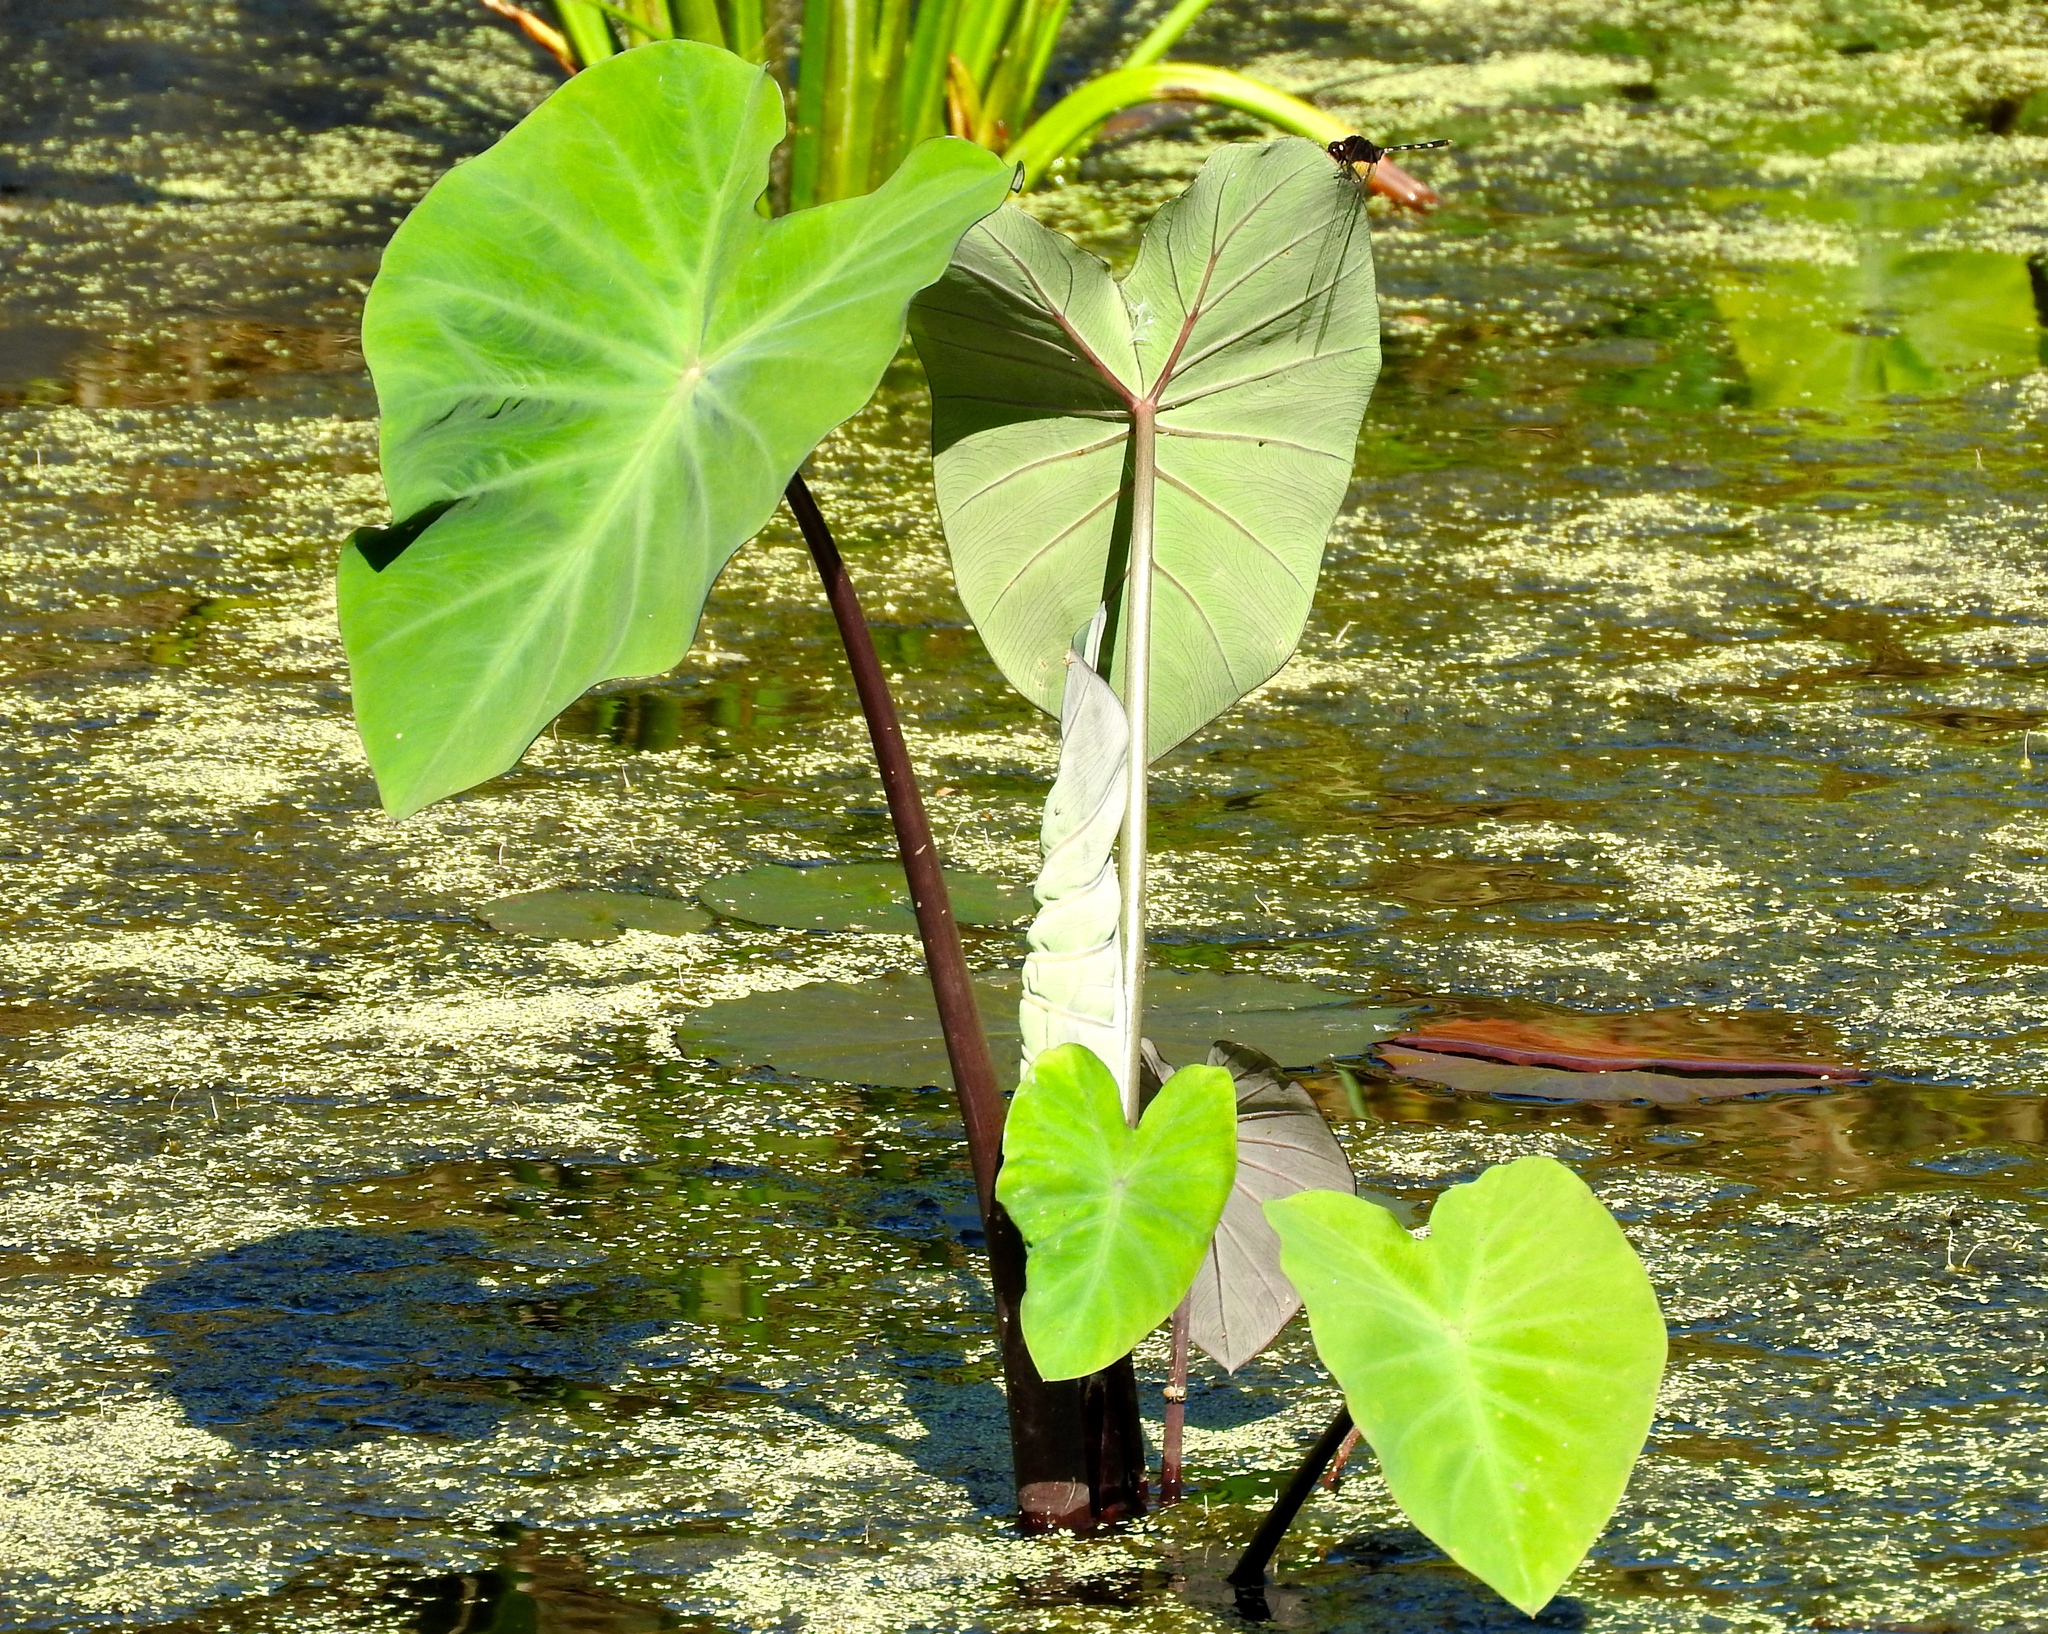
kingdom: Plantae
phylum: Tracheophyta
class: Liliopsida
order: Alismatales
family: Araceae
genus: Colocasia
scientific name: Colocasia esculenta
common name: Taro
